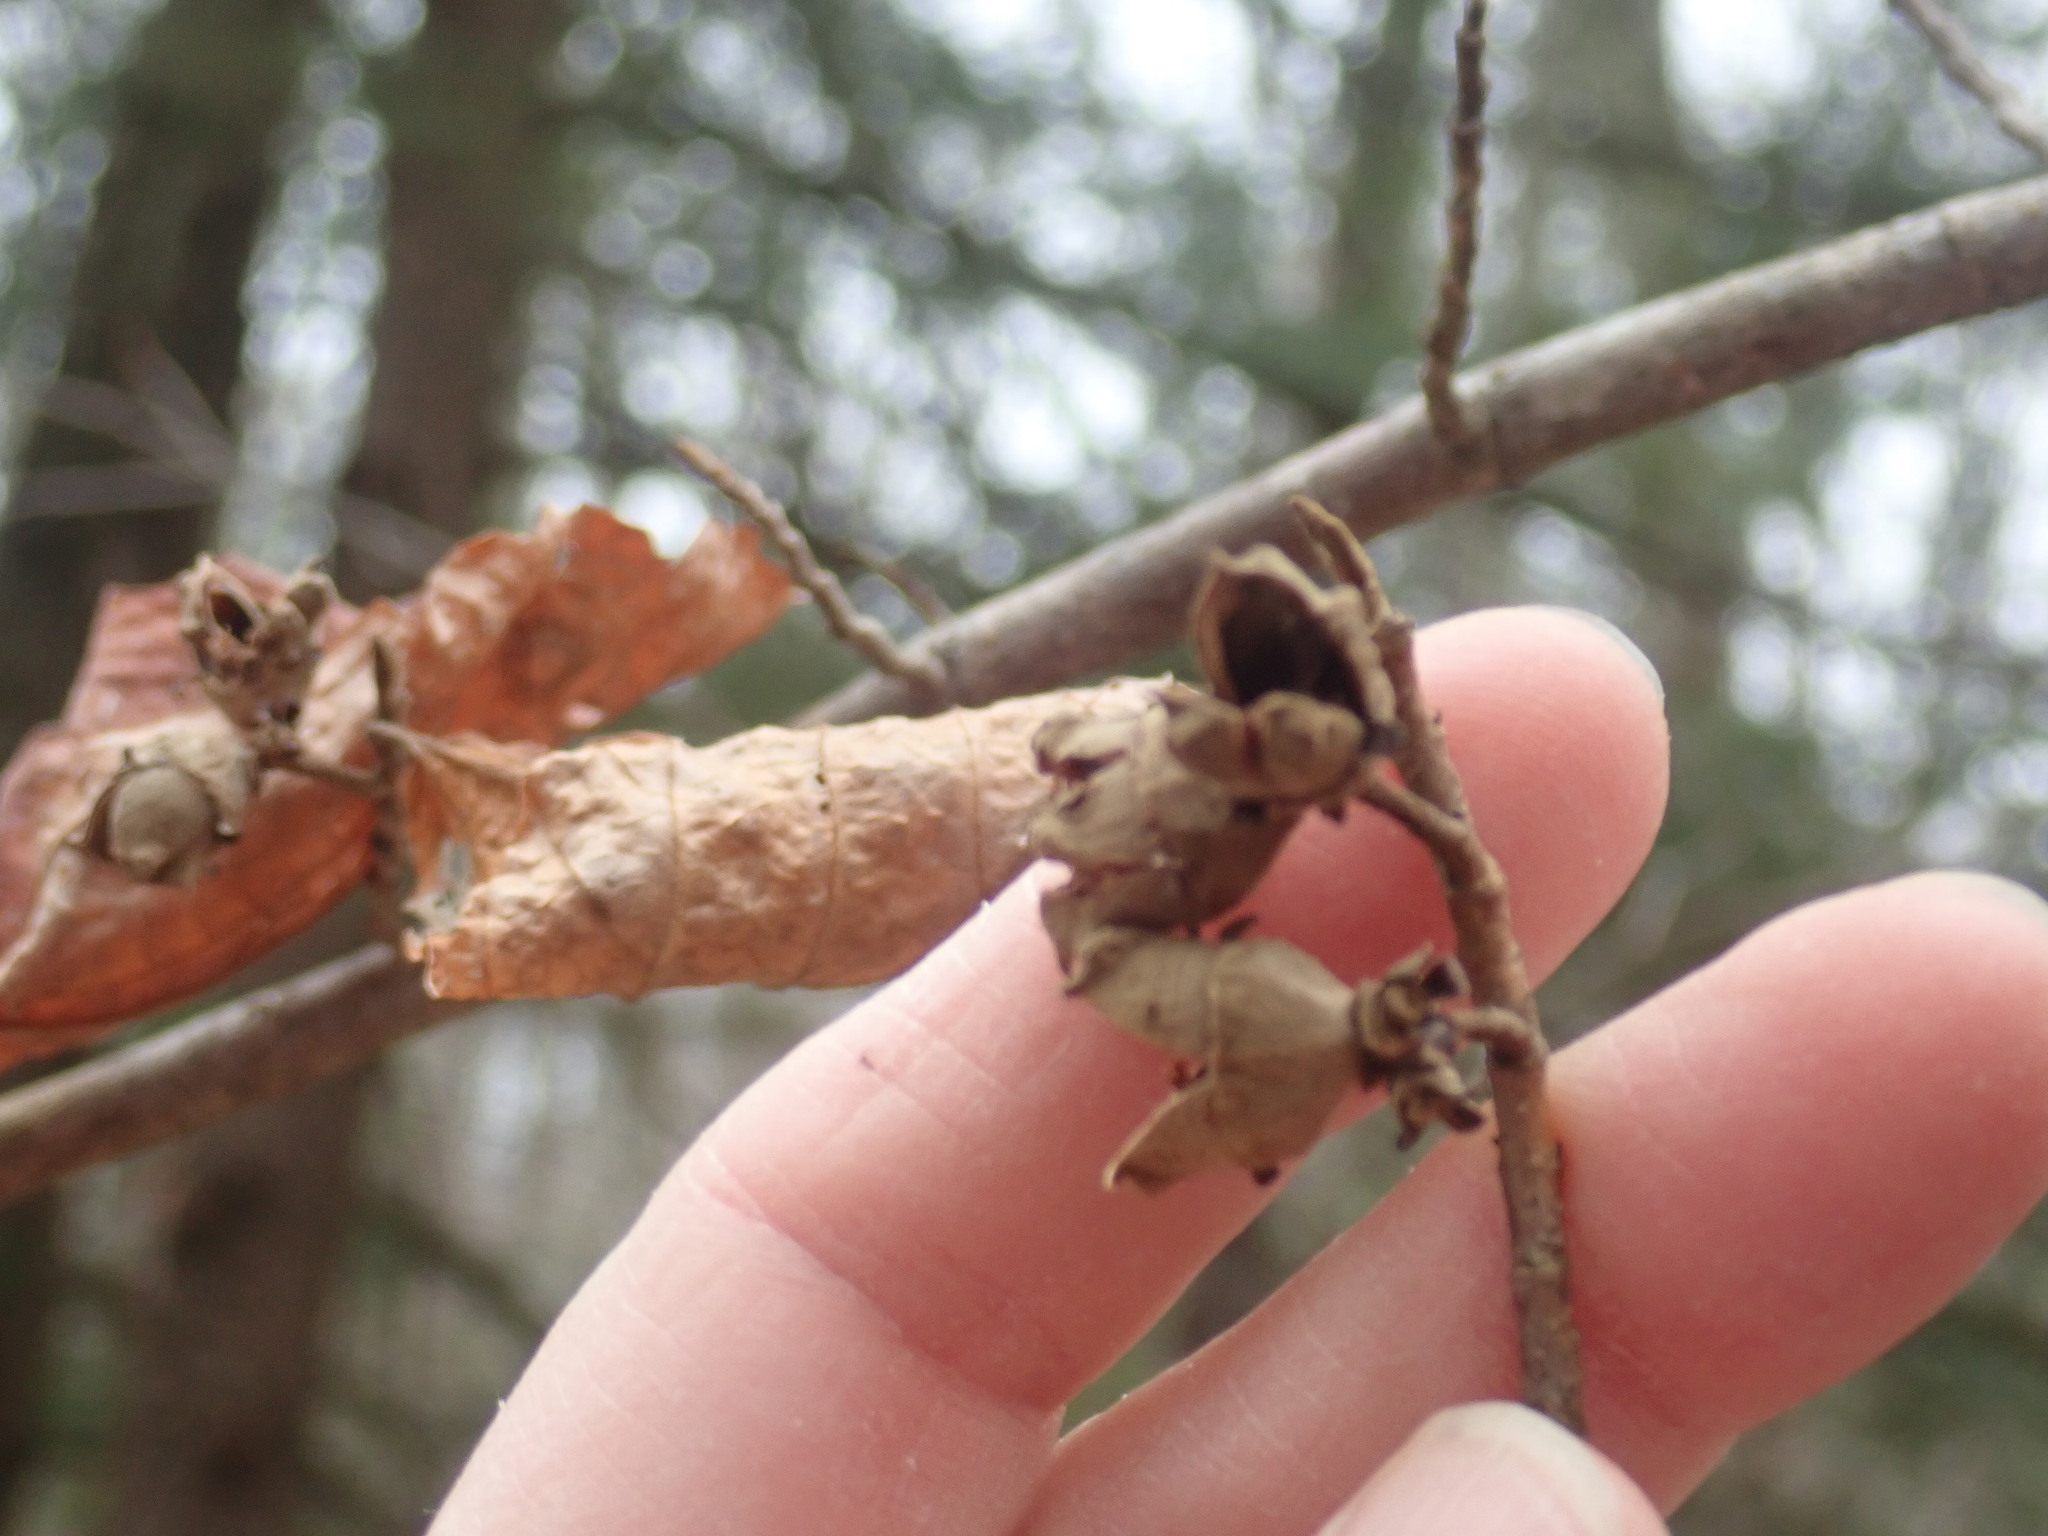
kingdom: Plantae
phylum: Tracheophyta
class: Magnoliopsida
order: Saxifragales
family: Hamamelidaceae
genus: Hamamelis
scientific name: Hamamelis virginiana
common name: Witch-hazel
